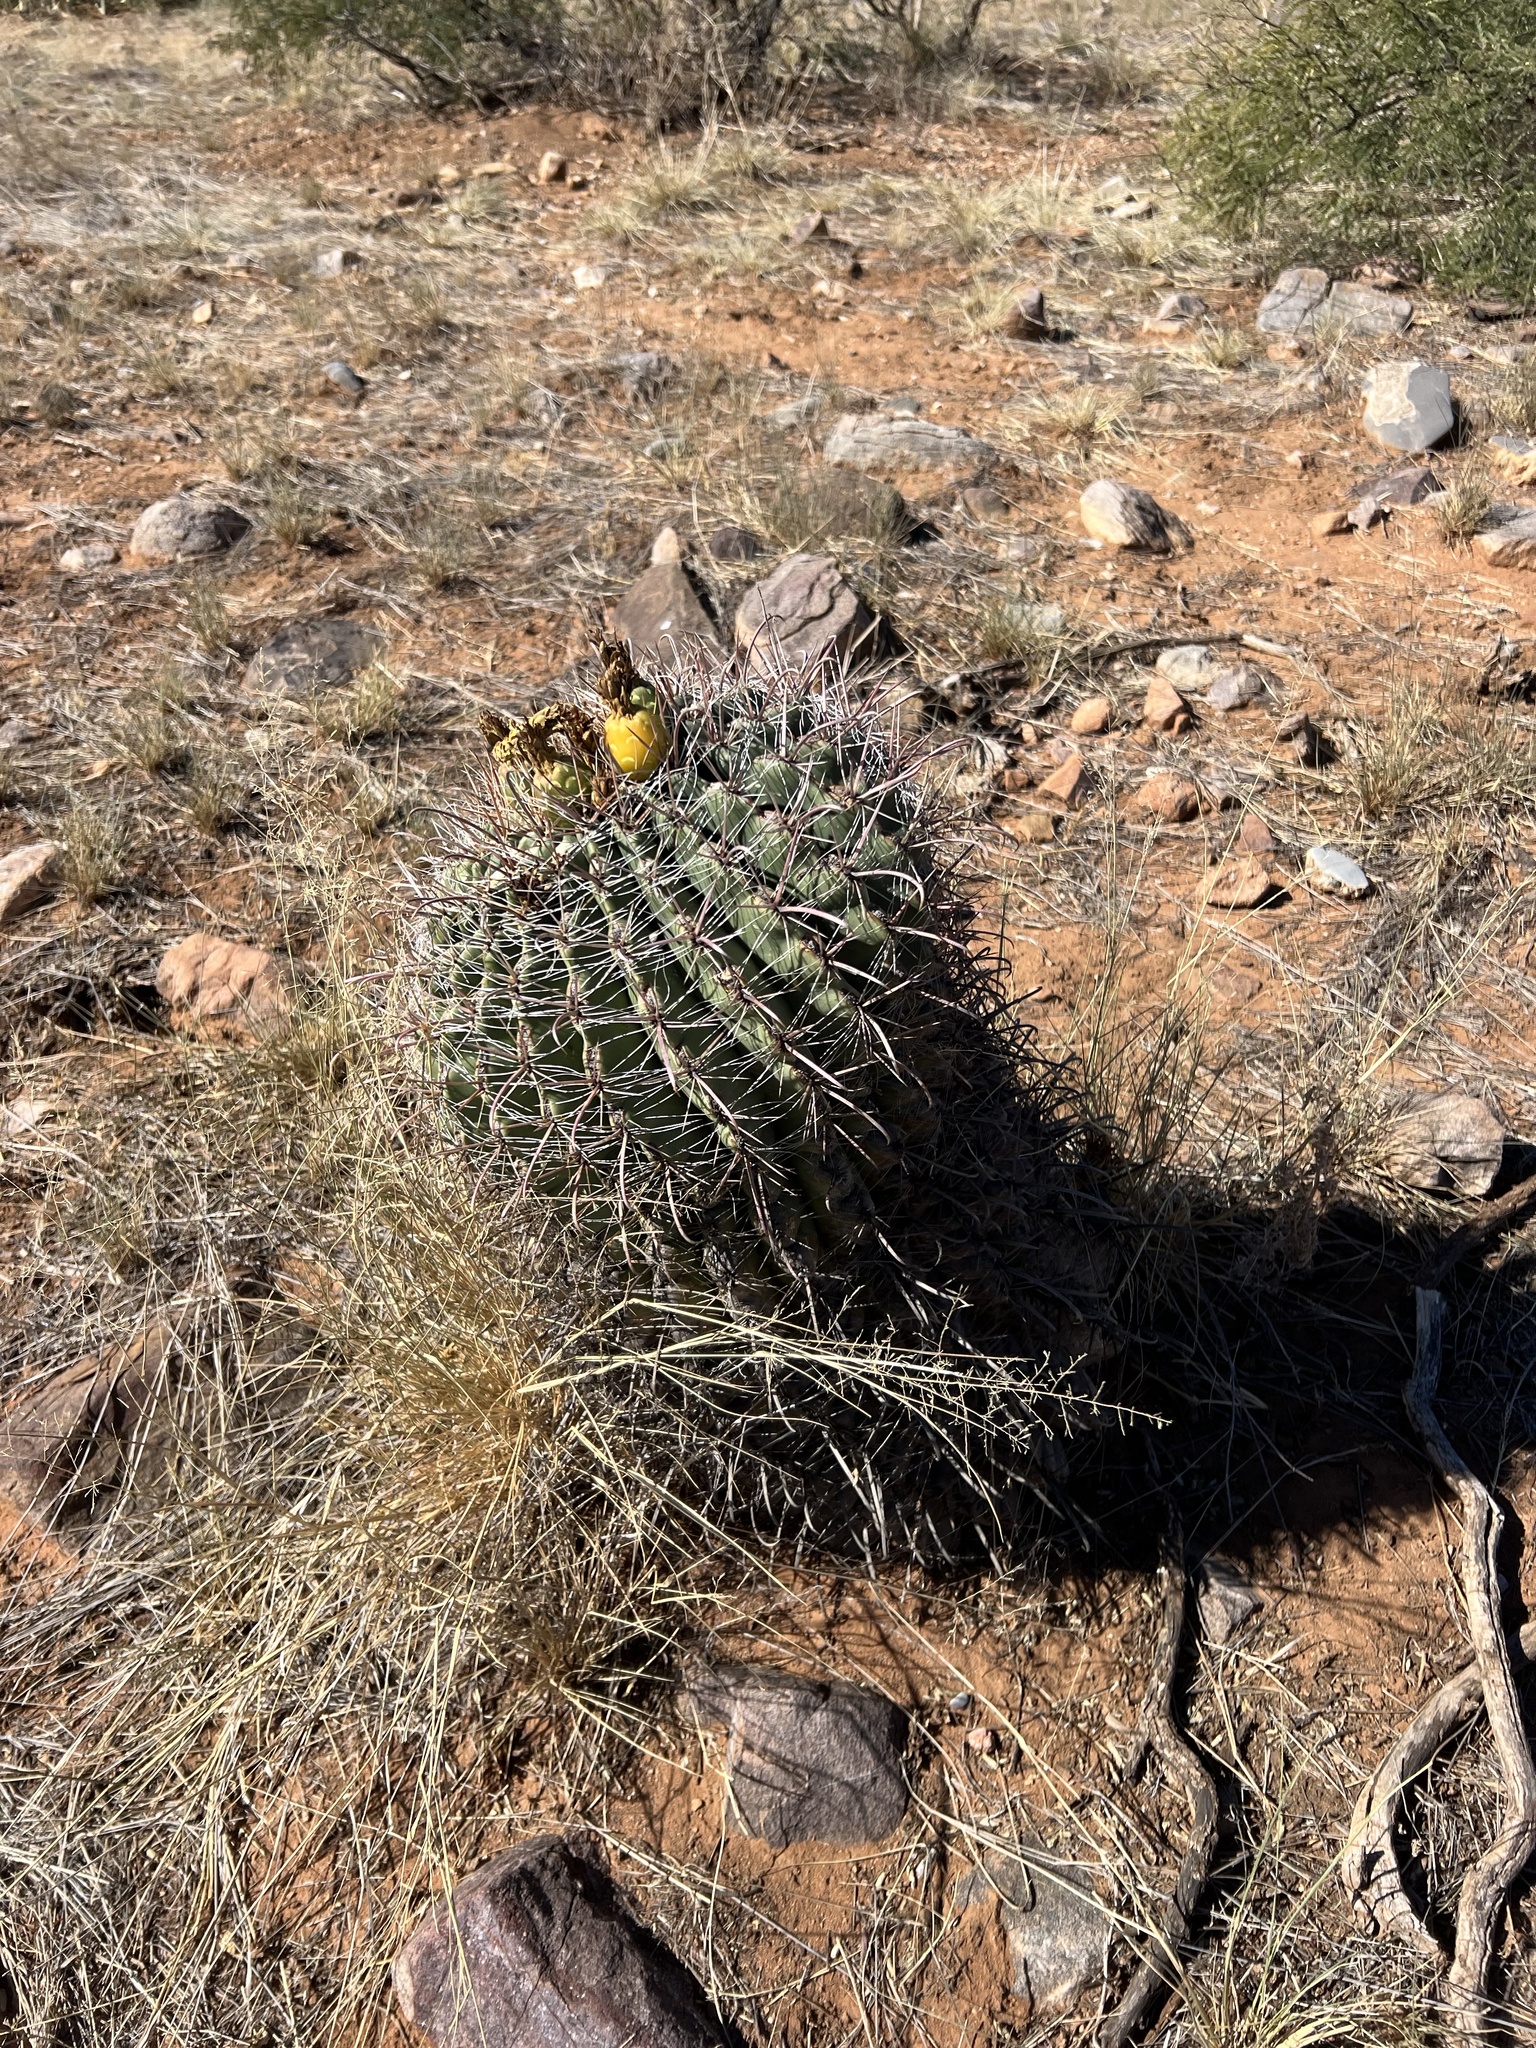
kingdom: Plantae
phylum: Tracheophyta
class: Magnoliopsida
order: Caryophyllales
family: Cactaceae
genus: Ferocactus
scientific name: Ferocactus wislizeni
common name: Candy barrel cactus
